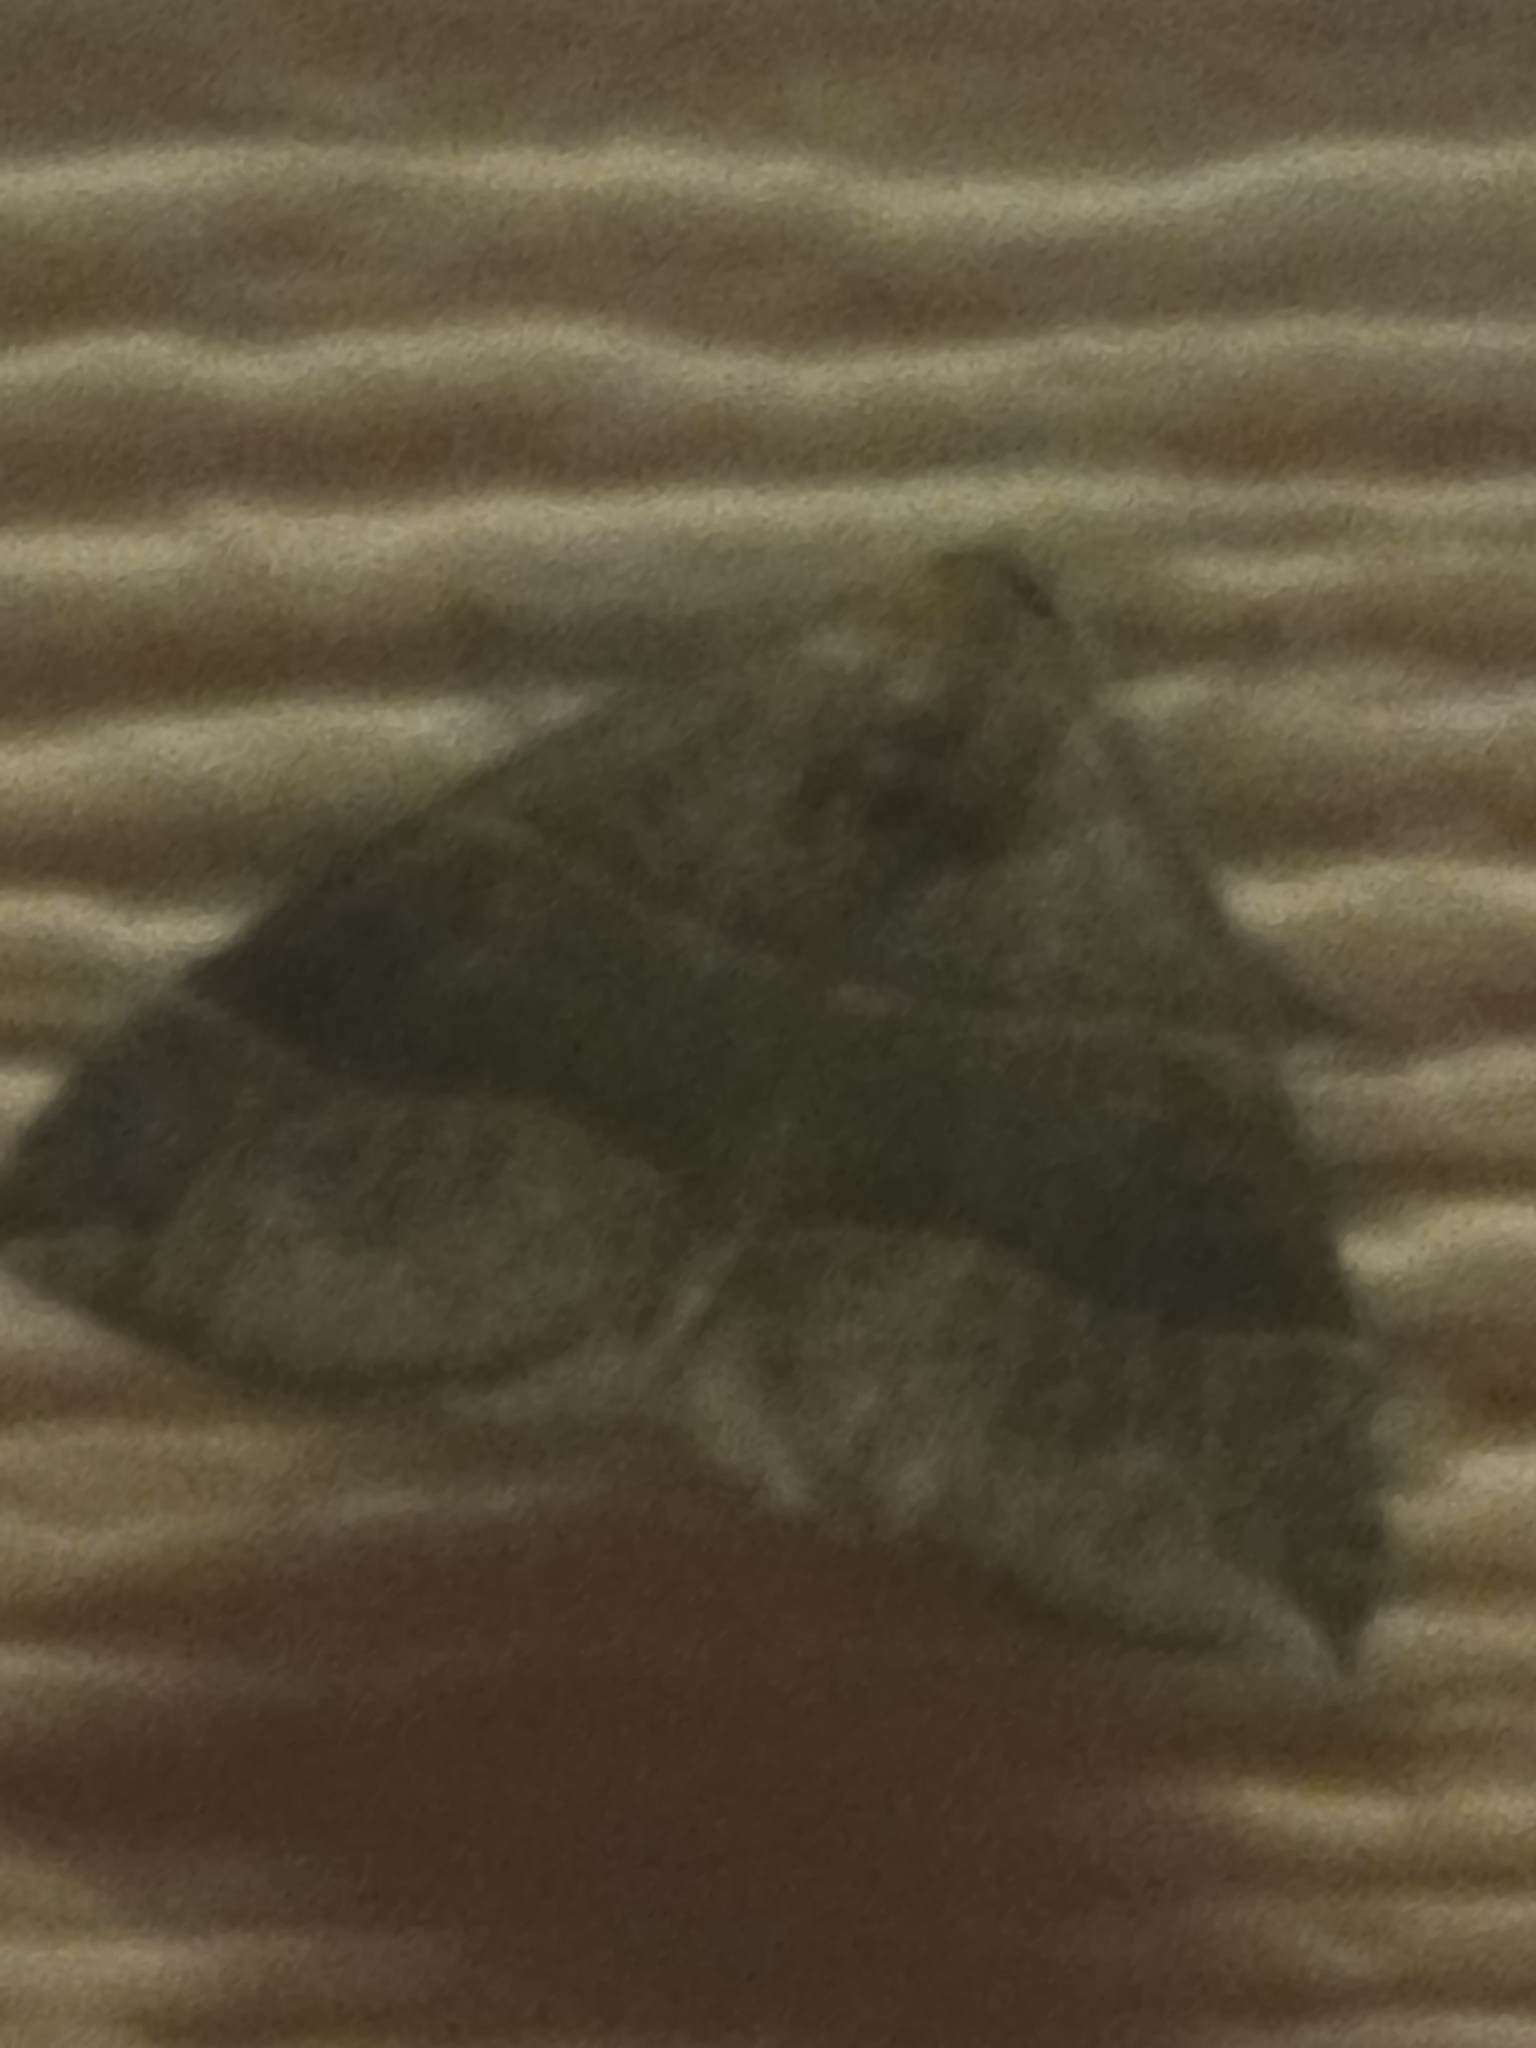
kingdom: Animalia
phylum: Arthropoda
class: Insecta
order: Lepidoptera
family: Erebidae
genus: Parallelia
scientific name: Parallelia bistriaris
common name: Maple looper moth
